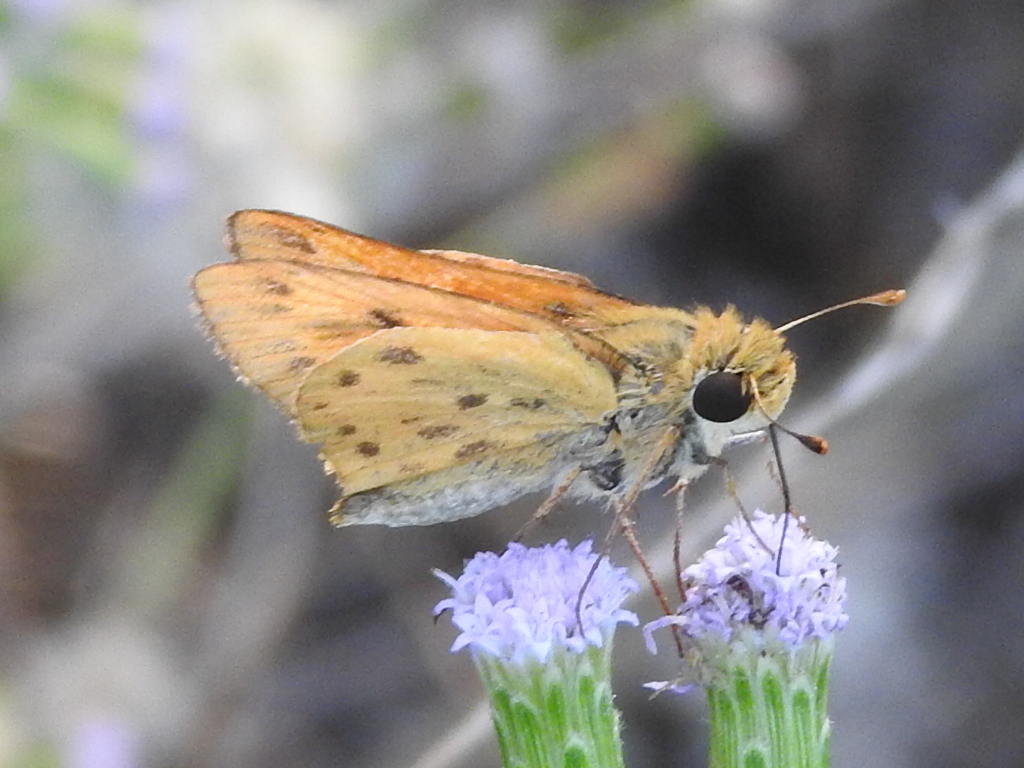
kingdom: Animalia
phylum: Arthropoda
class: Insecta
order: Lepidoptera
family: Hesperiidae
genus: Hylephila
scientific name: Hylephila phyleus
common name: Fiery skipper
